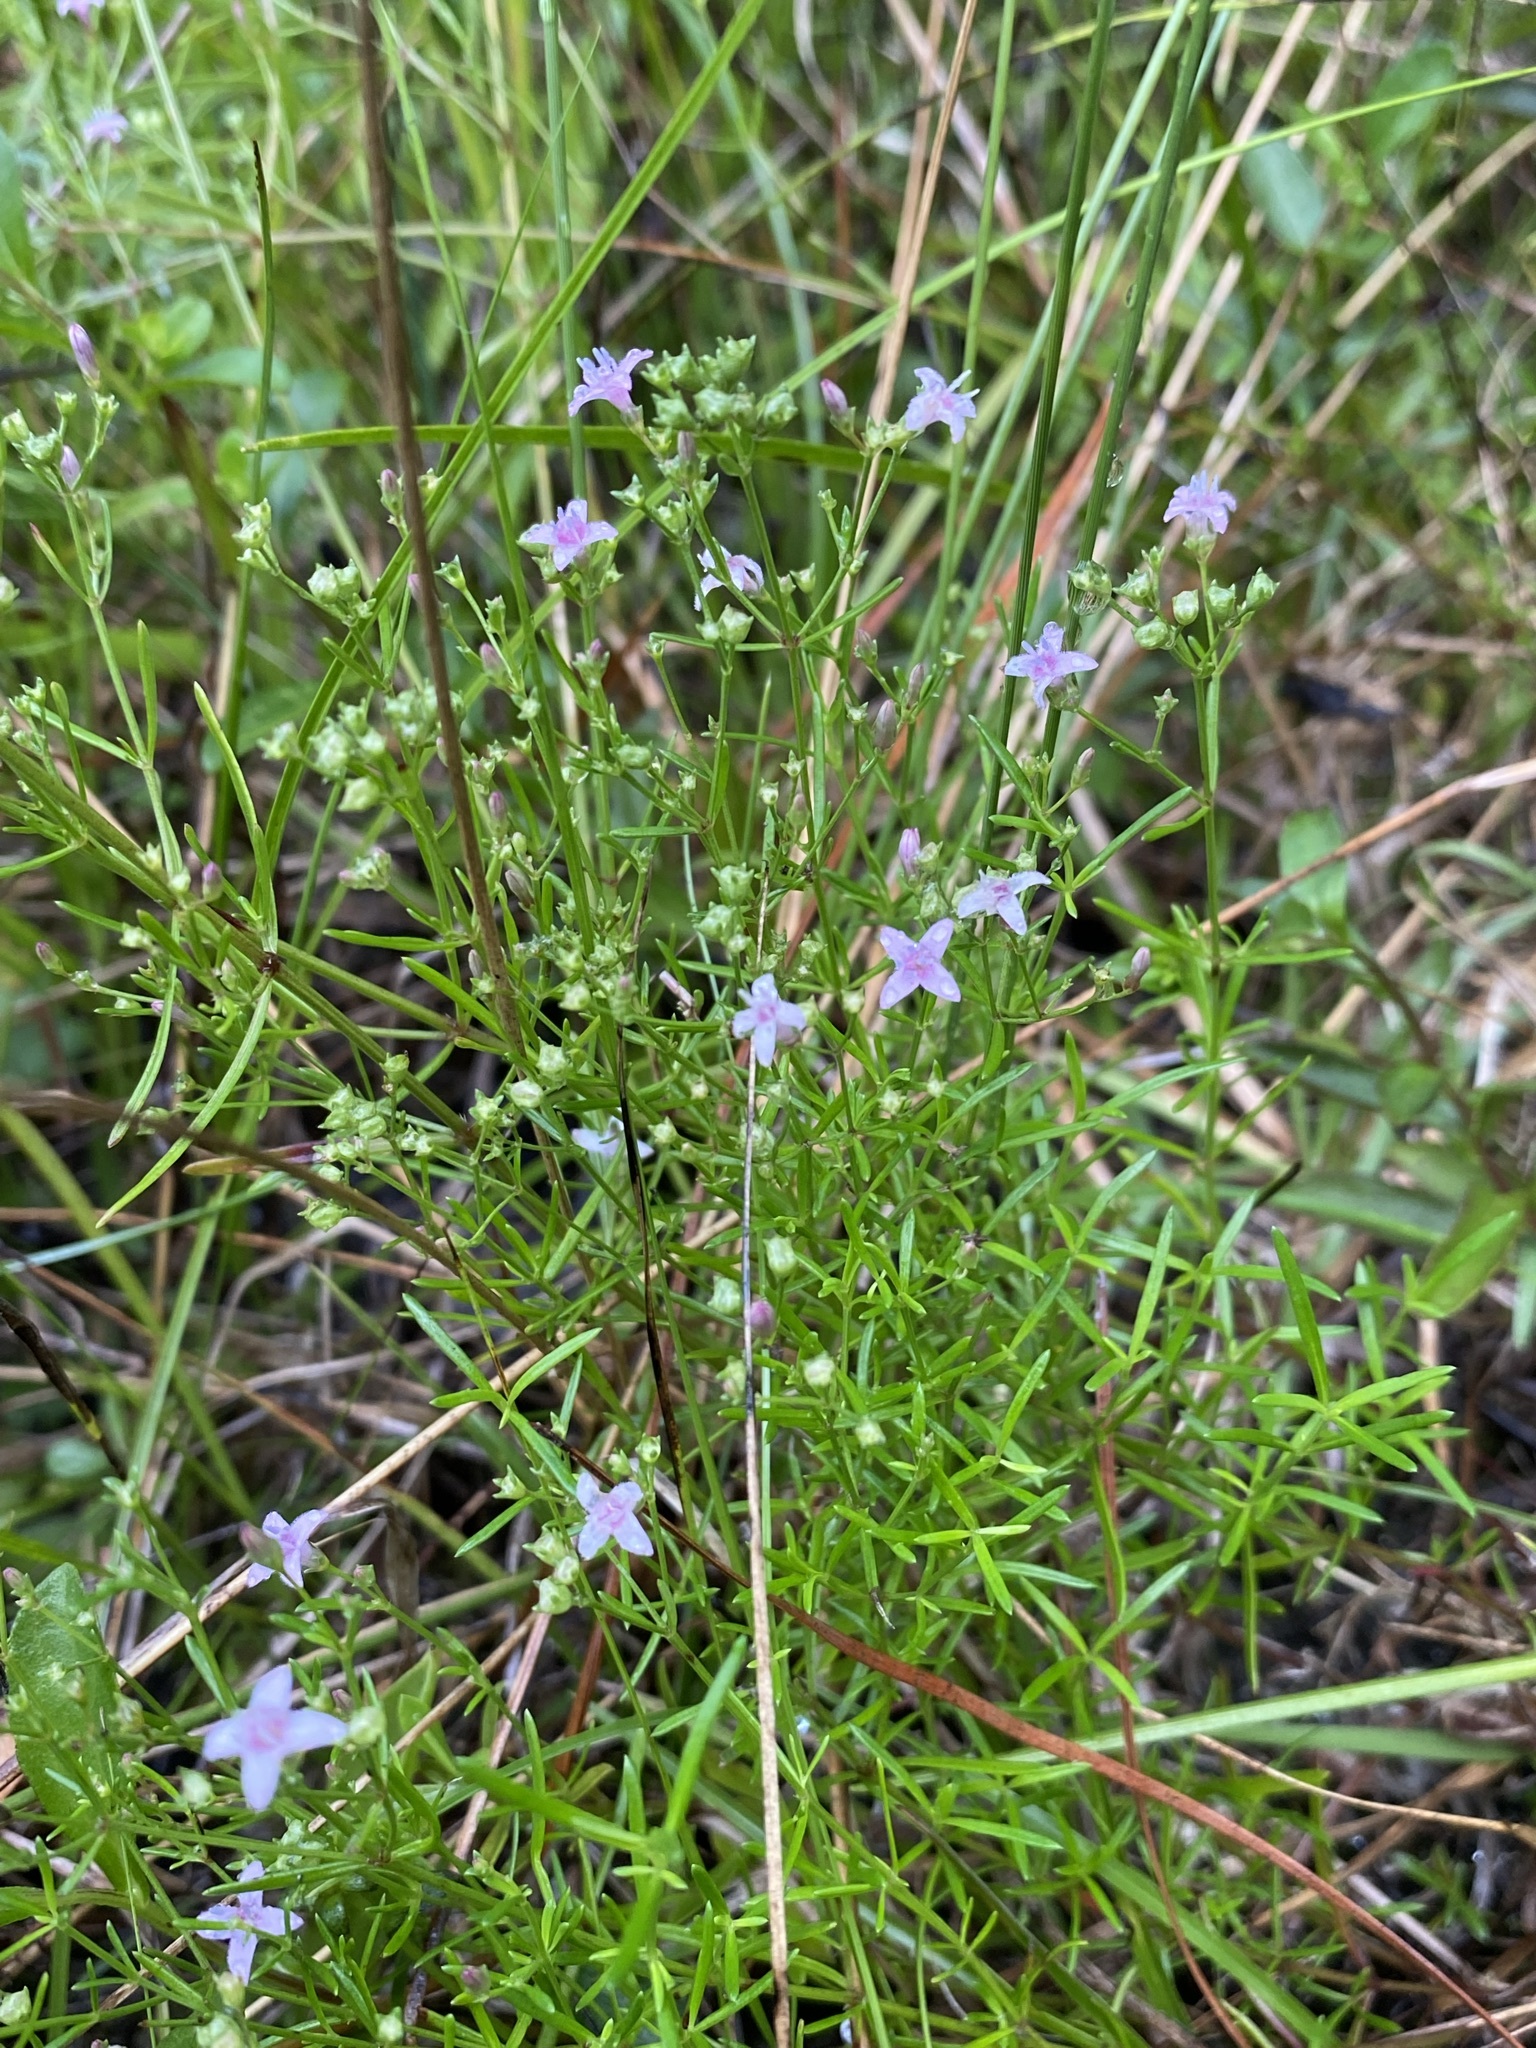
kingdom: Plantae
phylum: Tracheophyta
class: Magnoliopsida
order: Gentianales
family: Rubiaceae
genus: Stenaria
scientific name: Stenaria nigricans
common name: Diamondflowers
